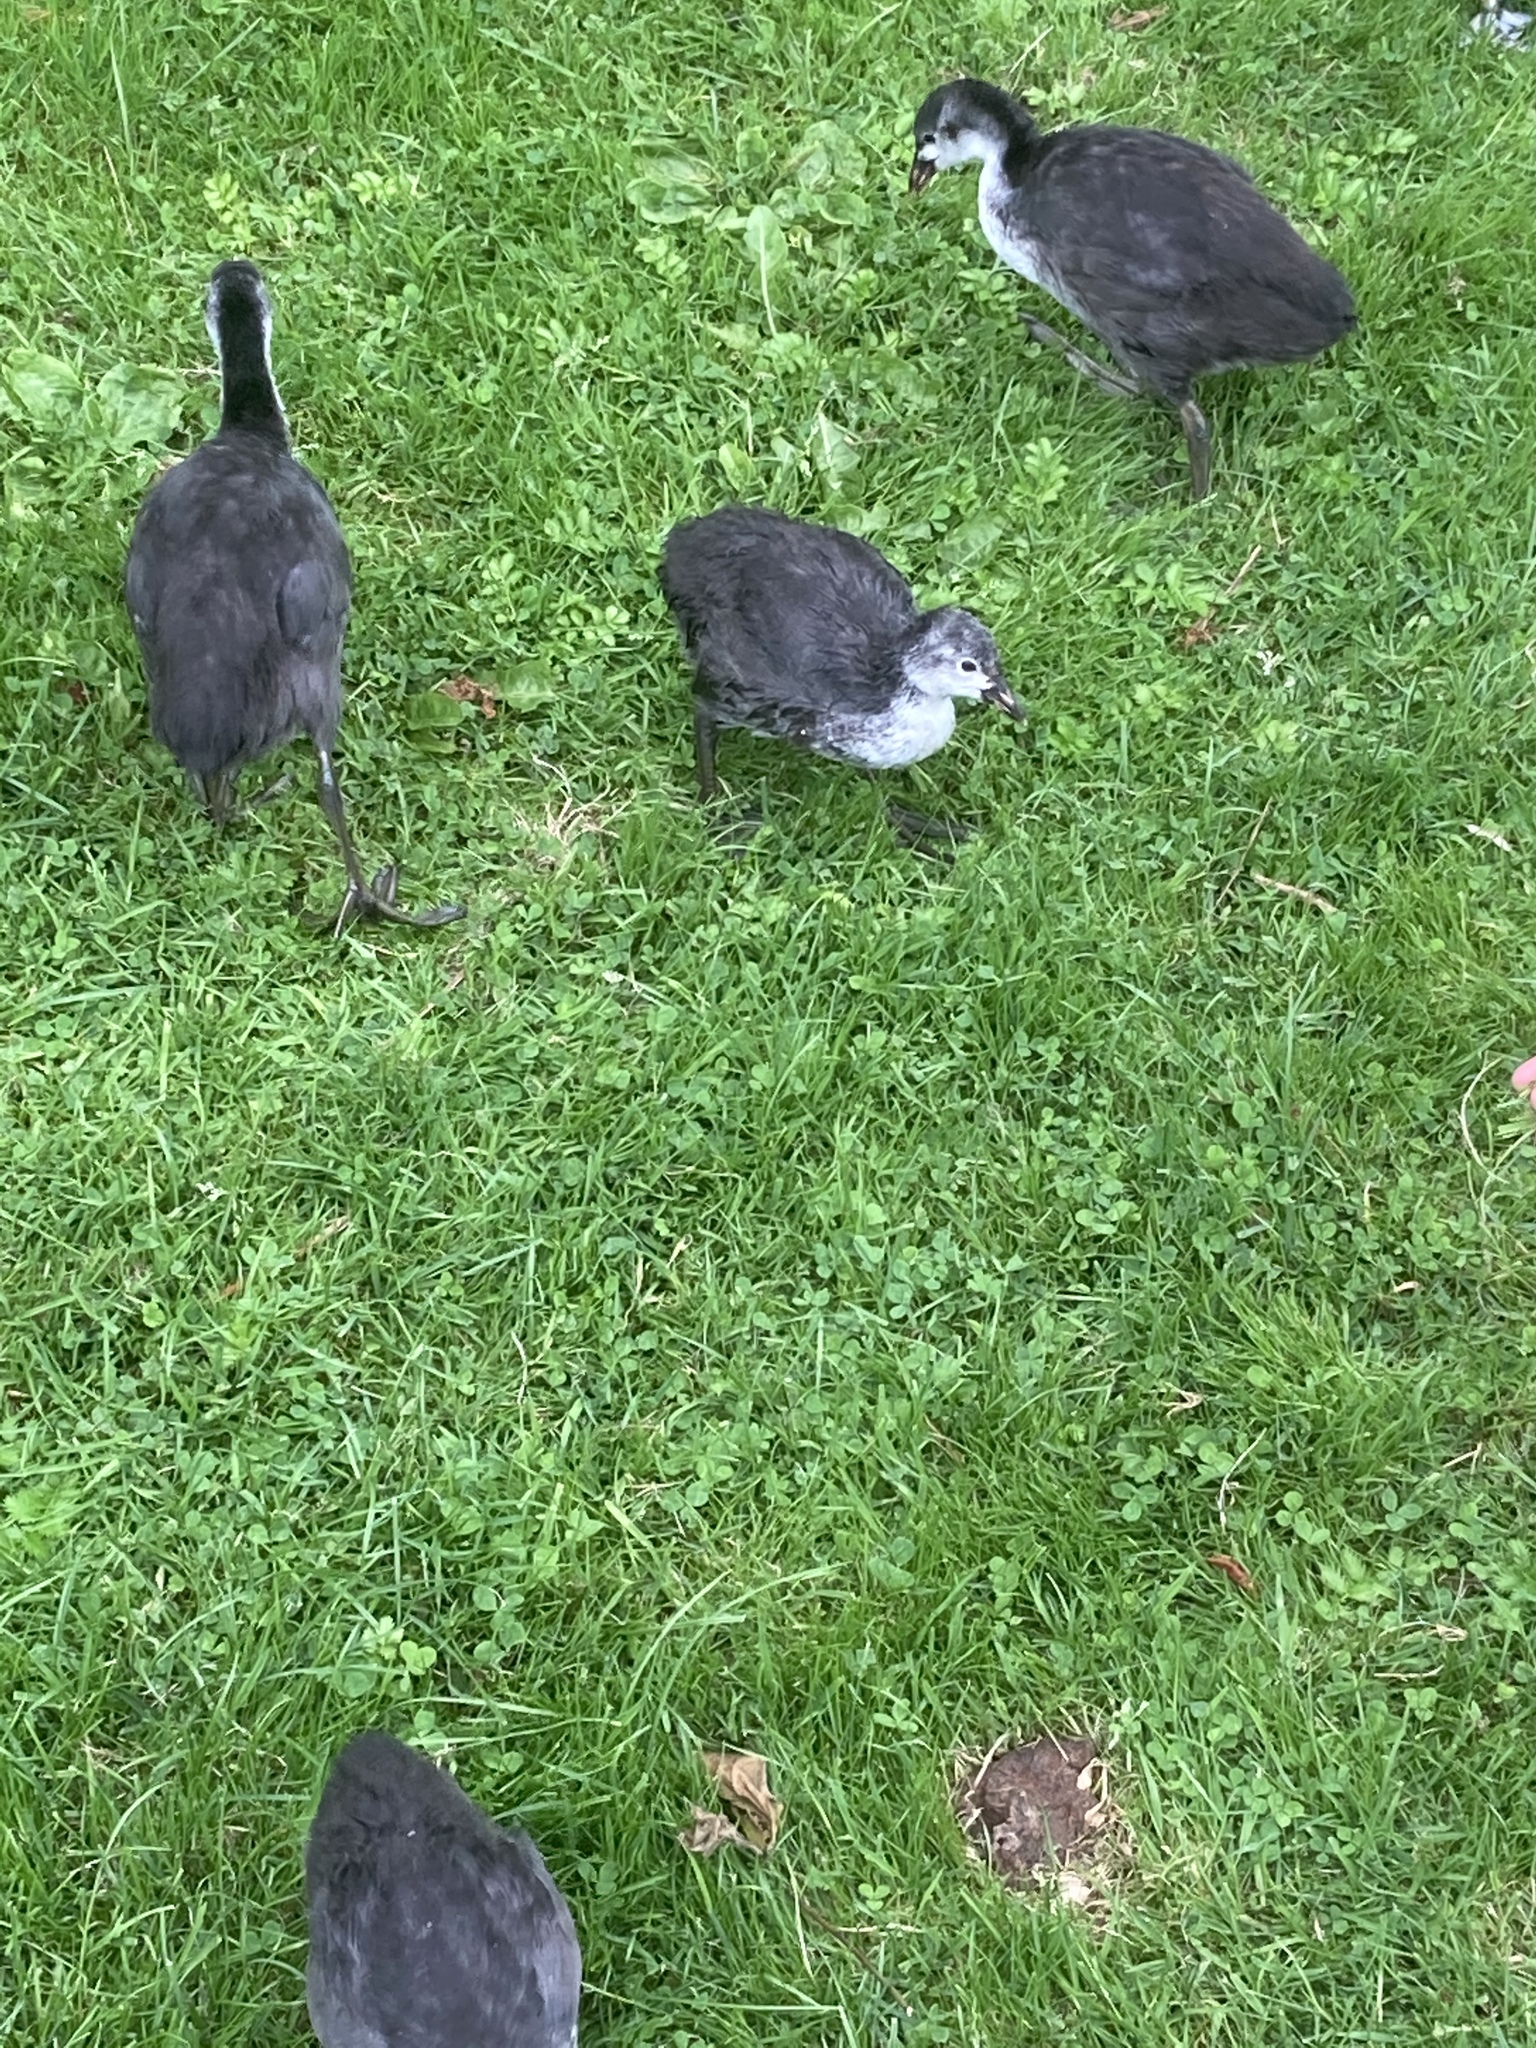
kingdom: Animalia
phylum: Chordata
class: Aves
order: Gruiformes
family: Rallidae
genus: Fulica
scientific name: Fulica atra
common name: Eurasian coot
